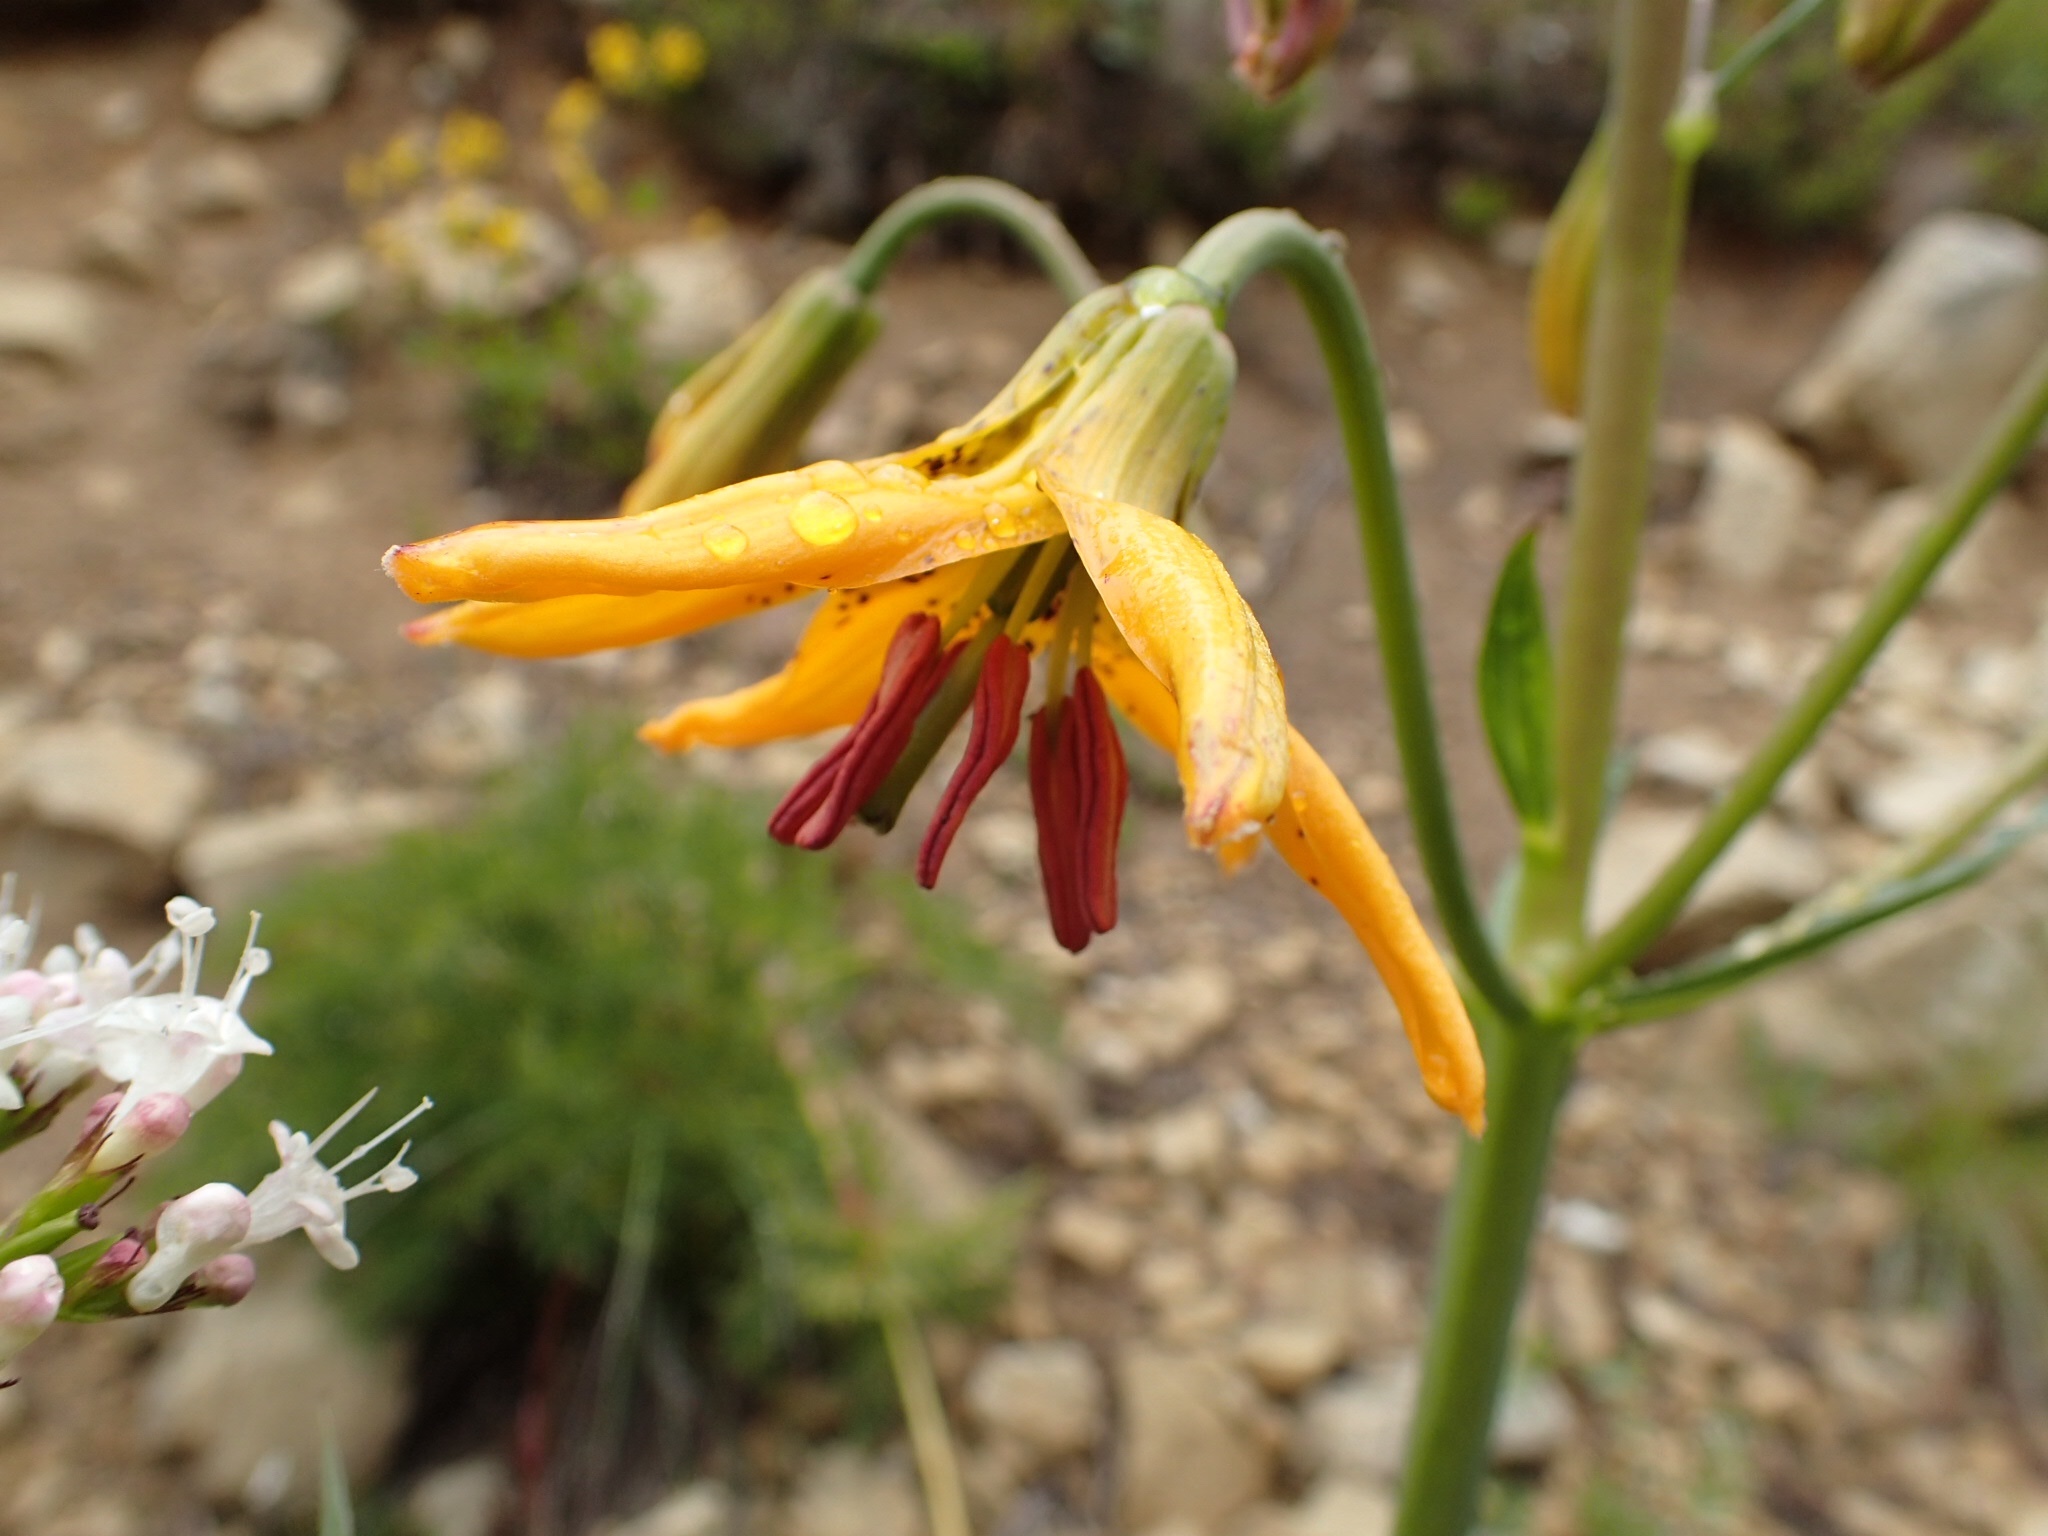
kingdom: Plantae
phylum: Tracheophyta
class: Liliopsida
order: Liliales
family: Liliaceae
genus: Lilium
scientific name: Lilium columbianum
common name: Columbia lily
